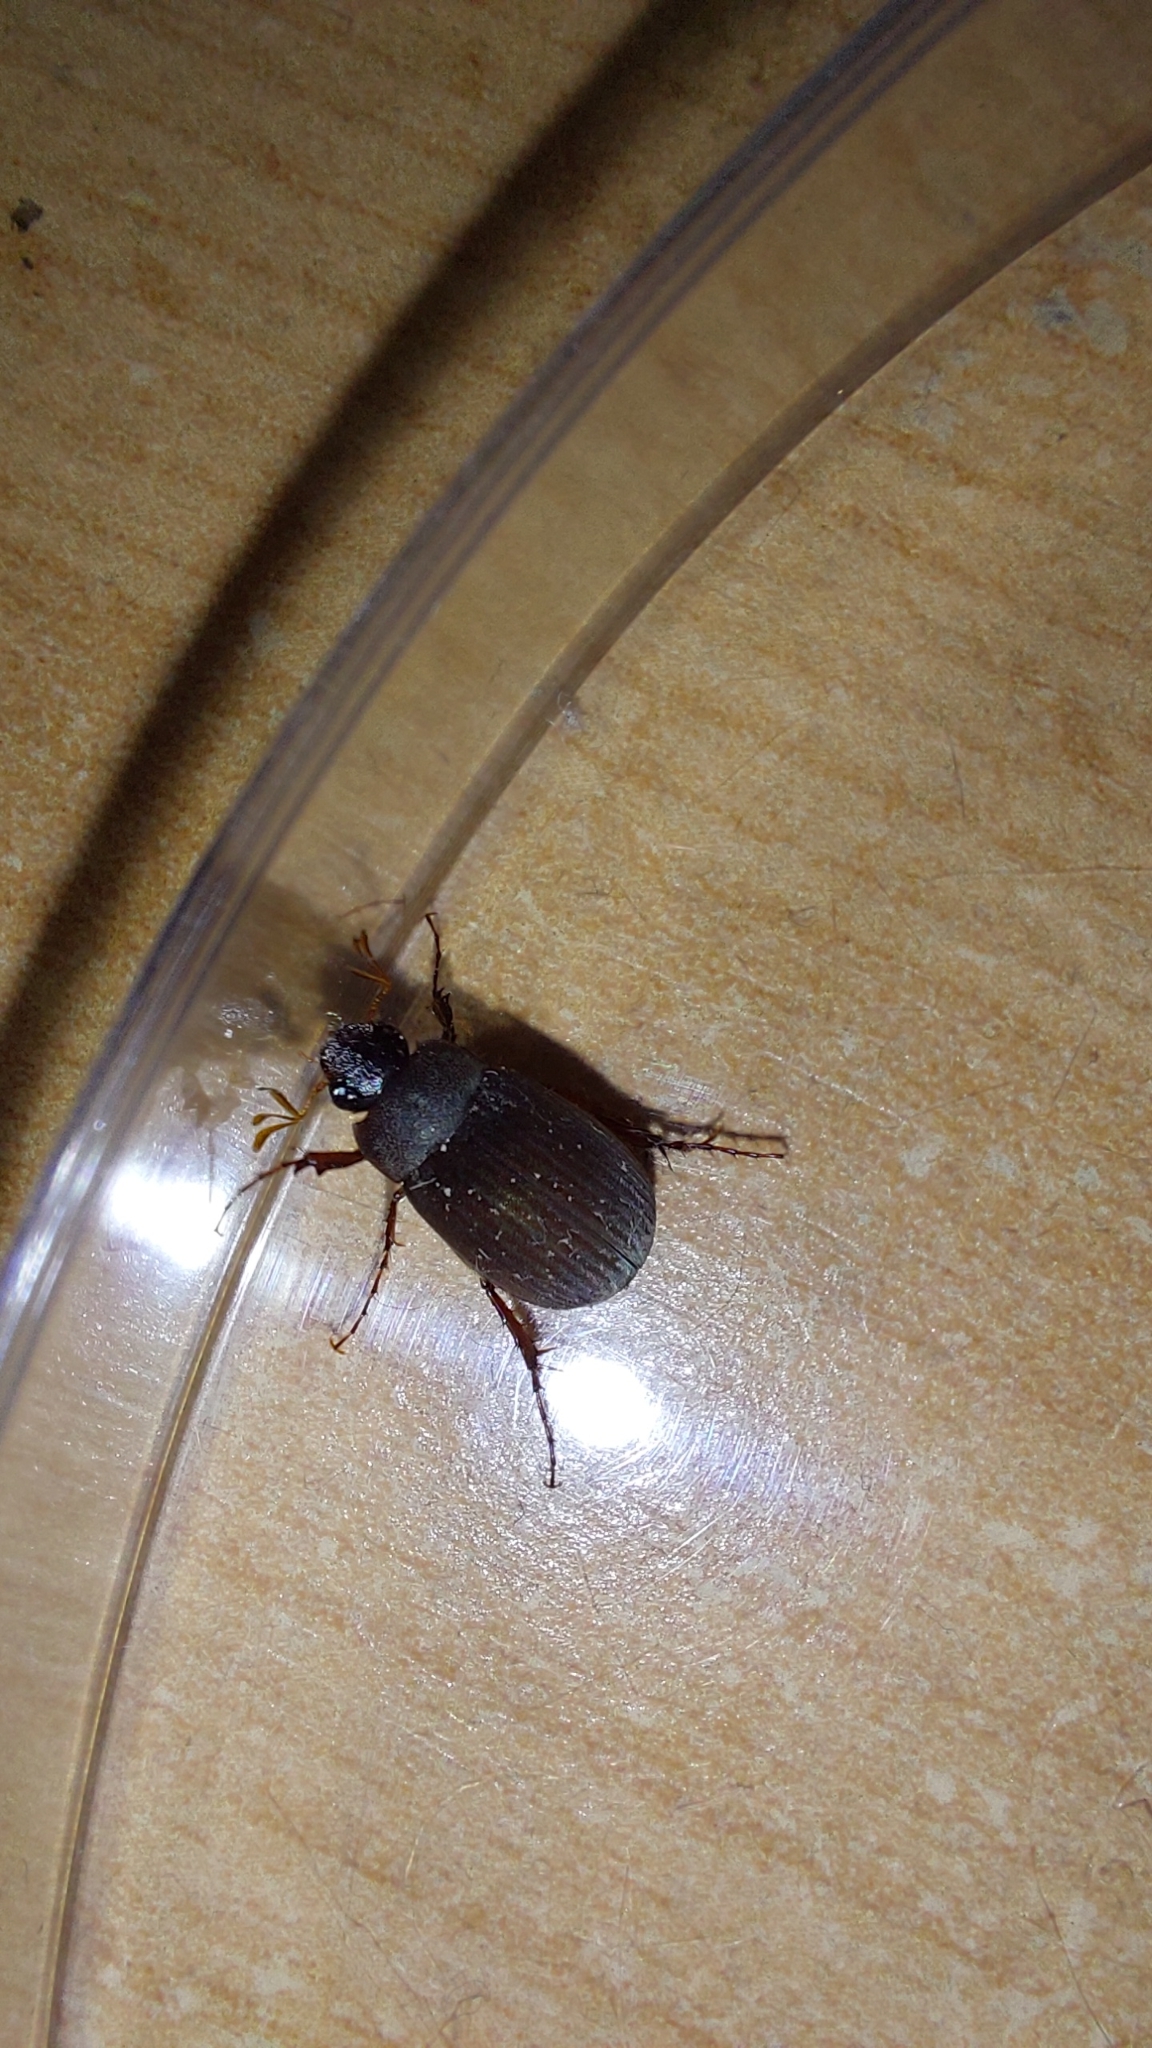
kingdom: Animalia
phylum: Arthropoda
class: Insecta
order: Coleoptera
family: Scarabaeidae
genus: Maladera
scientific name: Maladera holosericea
